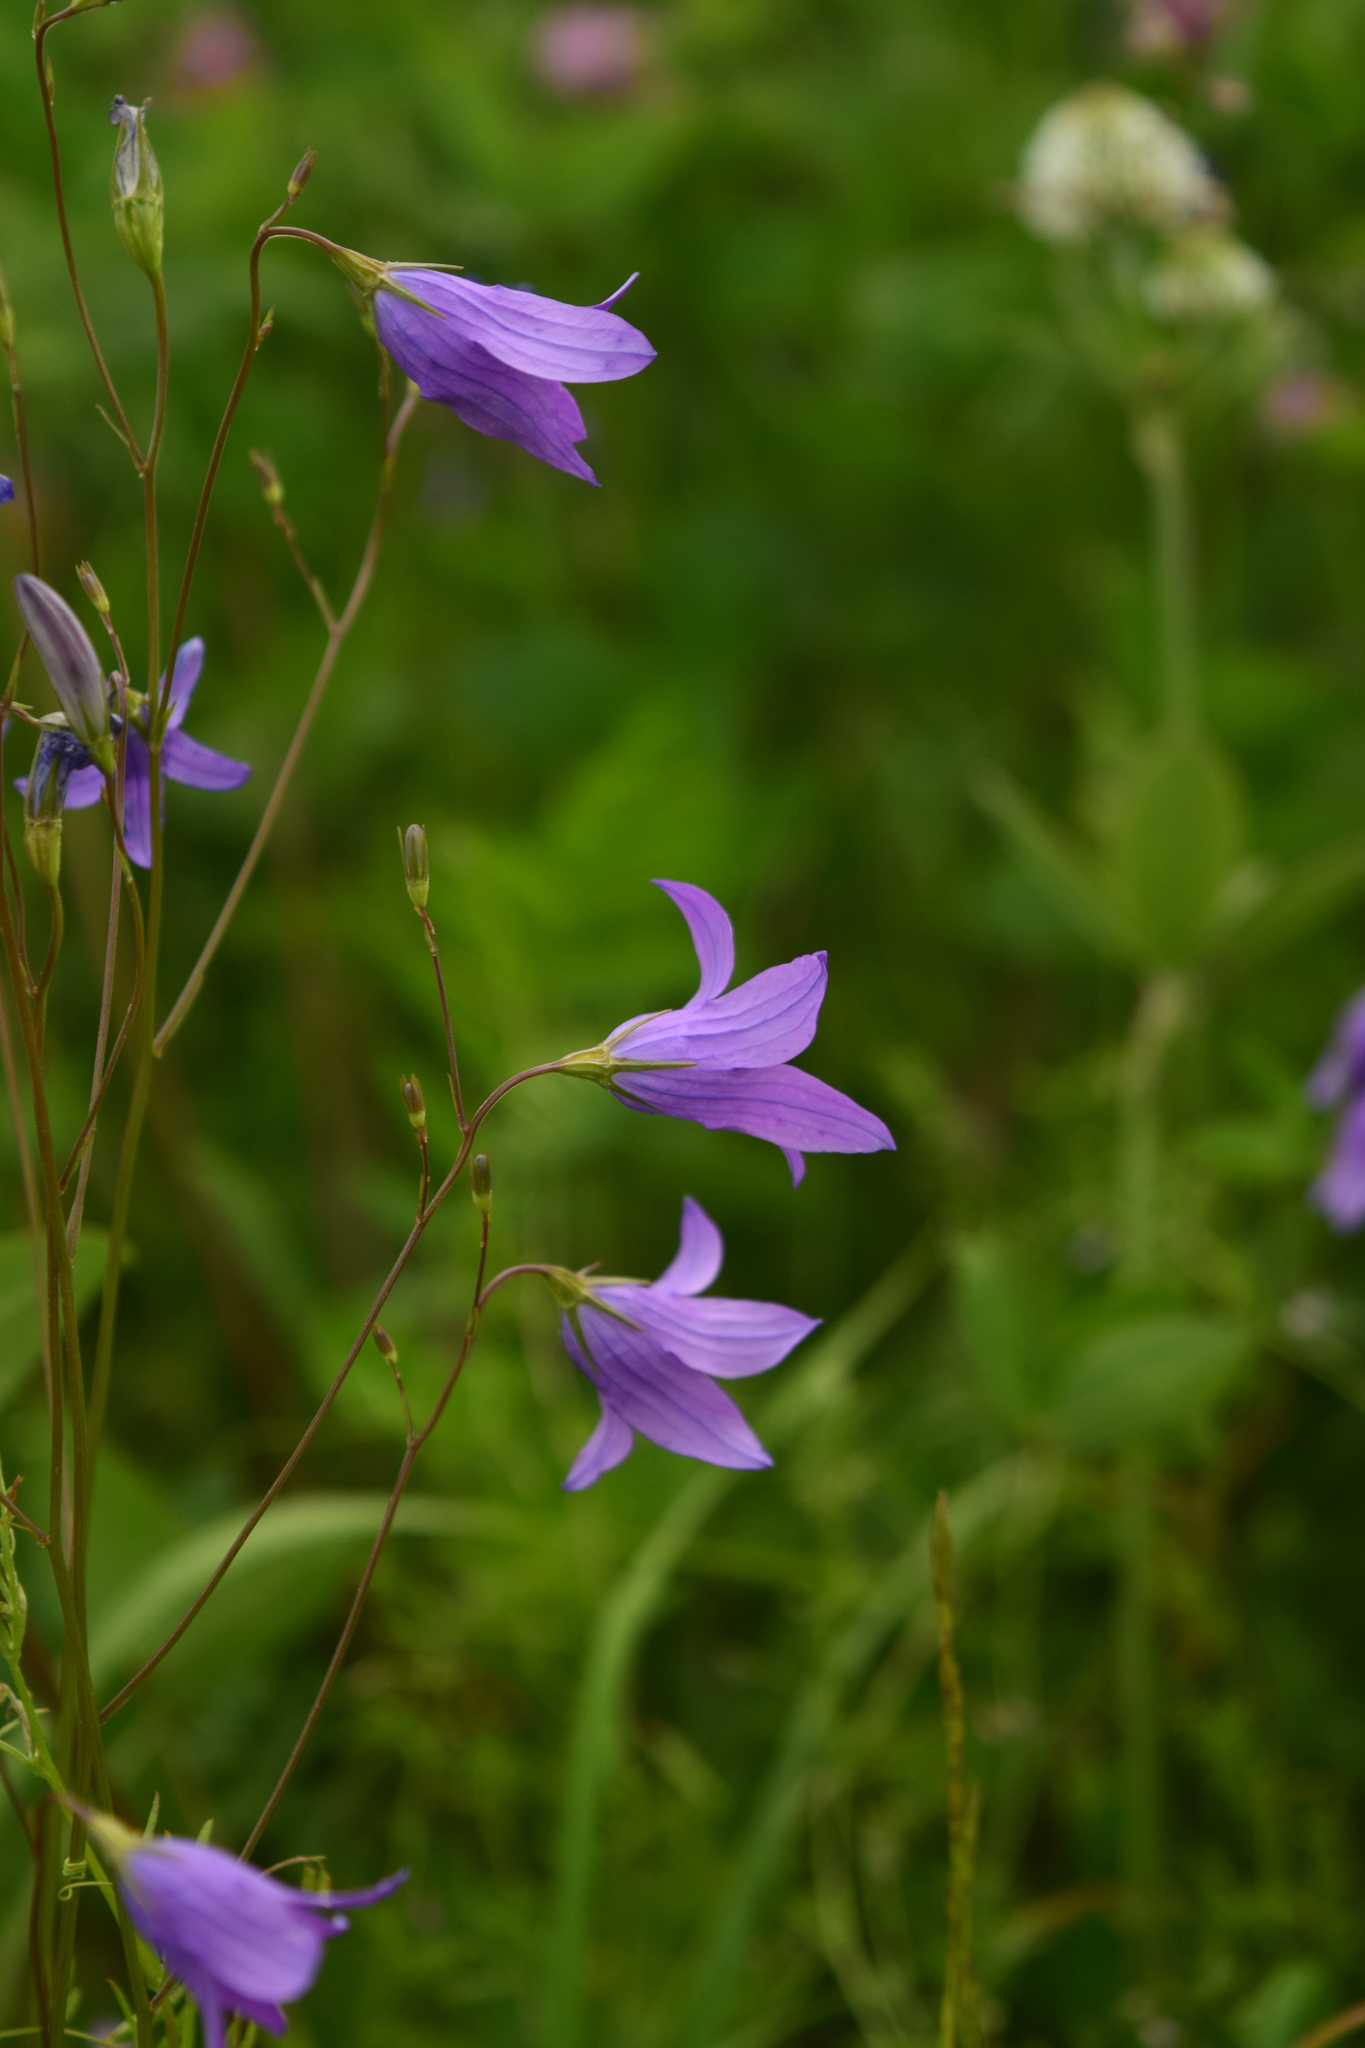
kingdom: Plantae
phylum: Tracheophyta
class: Magnoliopsida
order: Asterales
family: Campanulaceae
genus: Campanula
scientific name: Campanula patula
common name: Spreading bellflower
